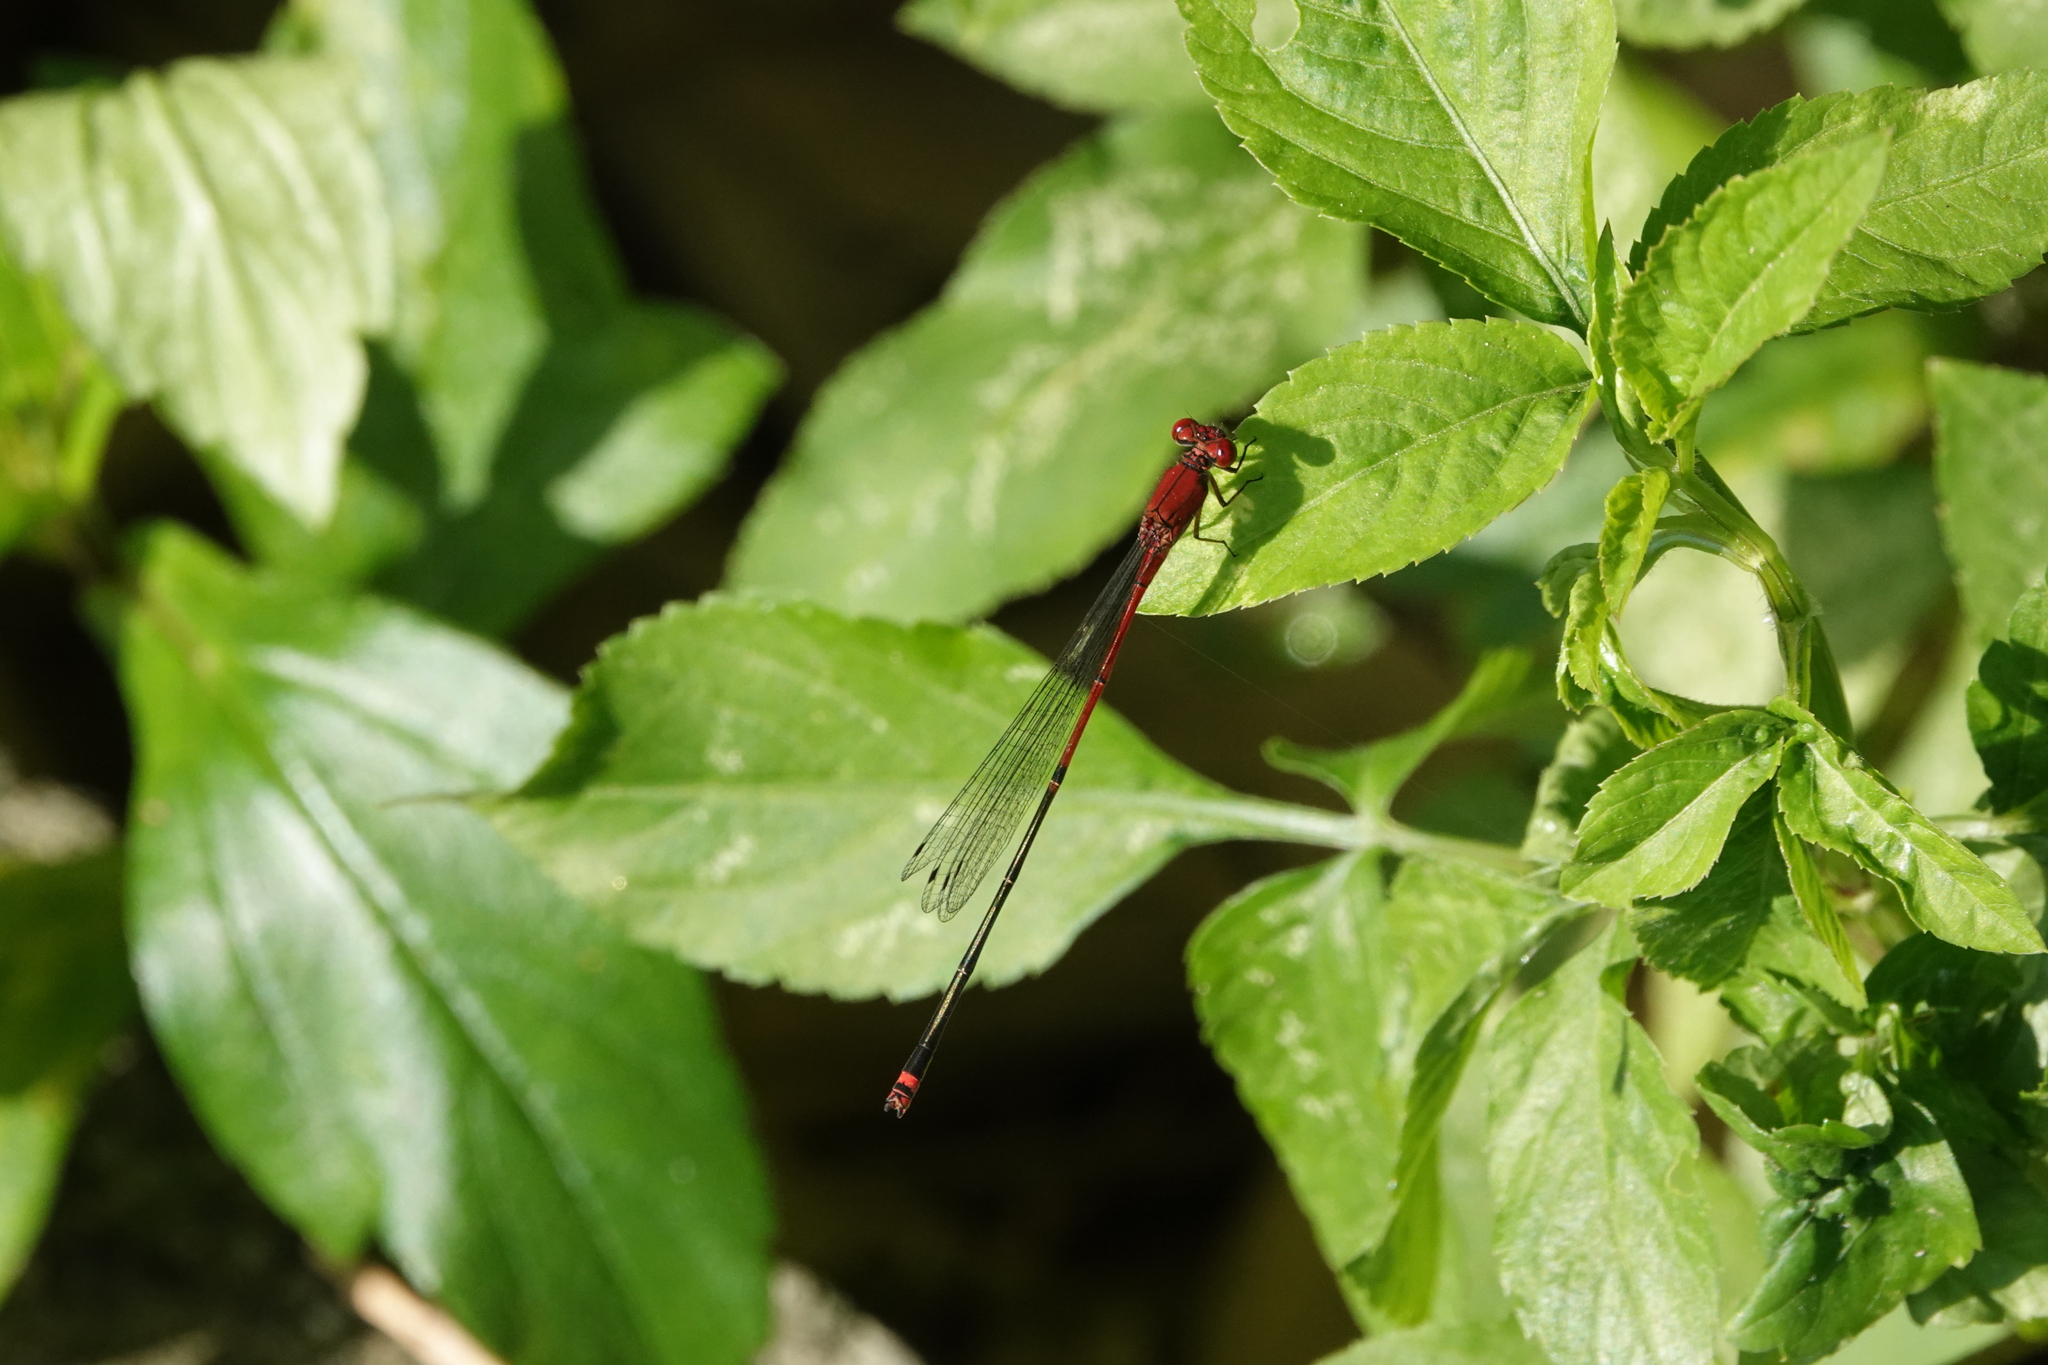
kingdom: Animalia
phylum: Arthropoda
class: Insecta
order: Odonata
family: Coenagrionidae
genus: Pseudagrion
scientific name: Pseudagrion pilidorsum
